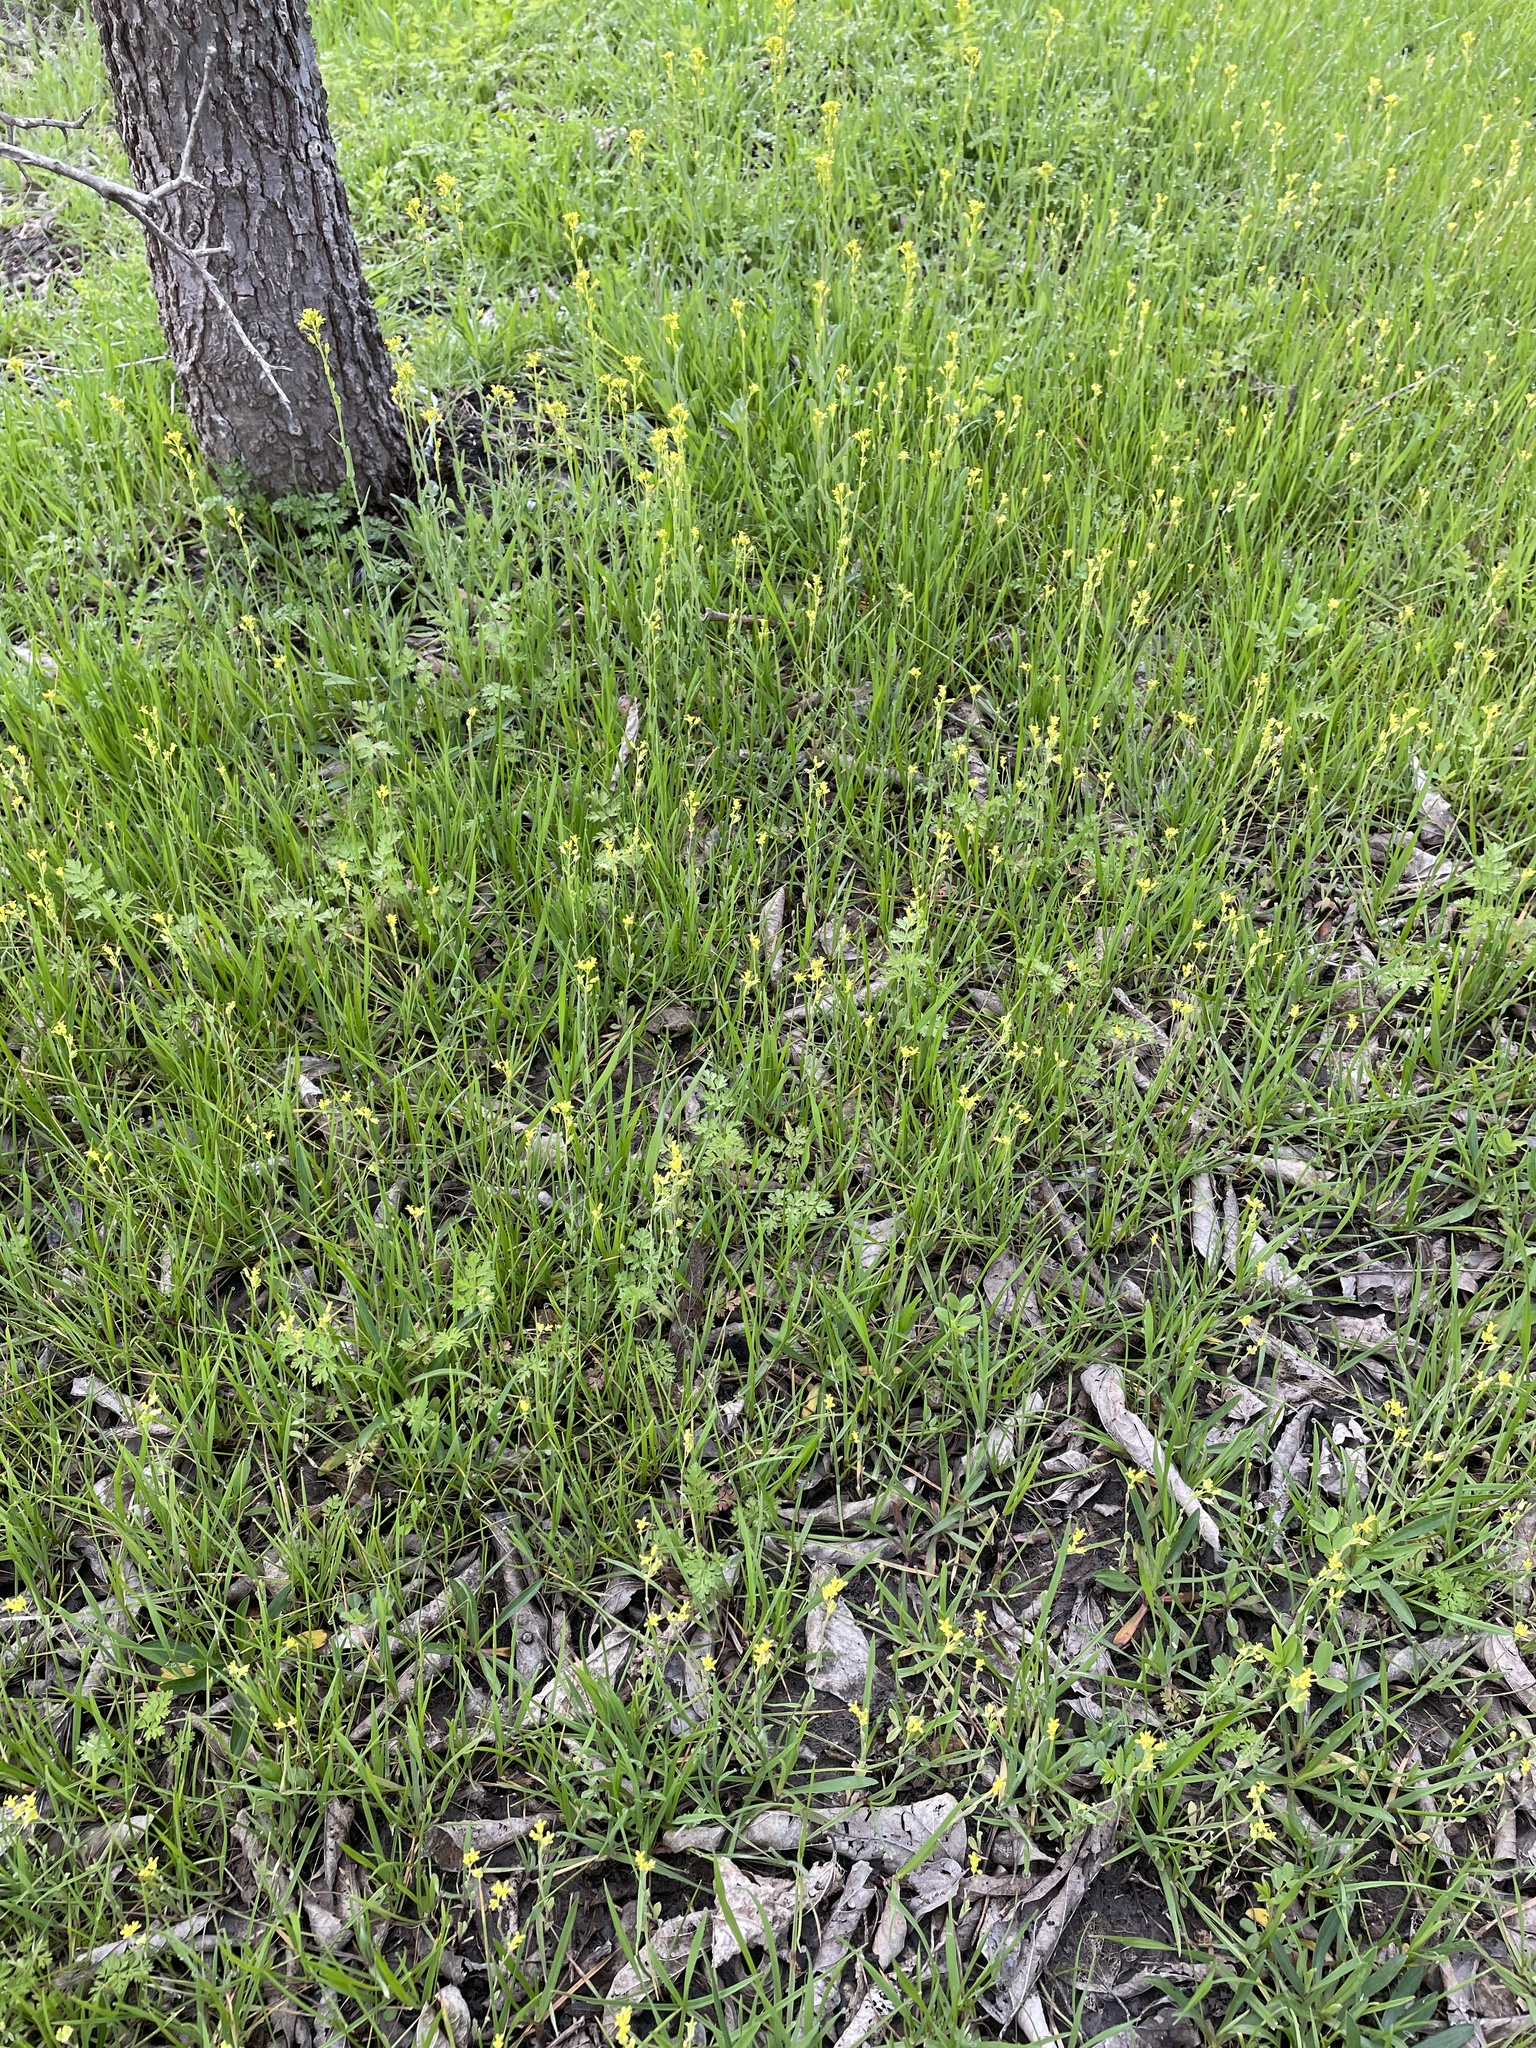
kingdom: Plantae
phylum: Tracheophyta
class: Magnoliopsida
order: Brassicales
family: Brassicaceae
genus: Myagrum
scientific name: Myagrum perfoliatum
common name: Mitre cress
